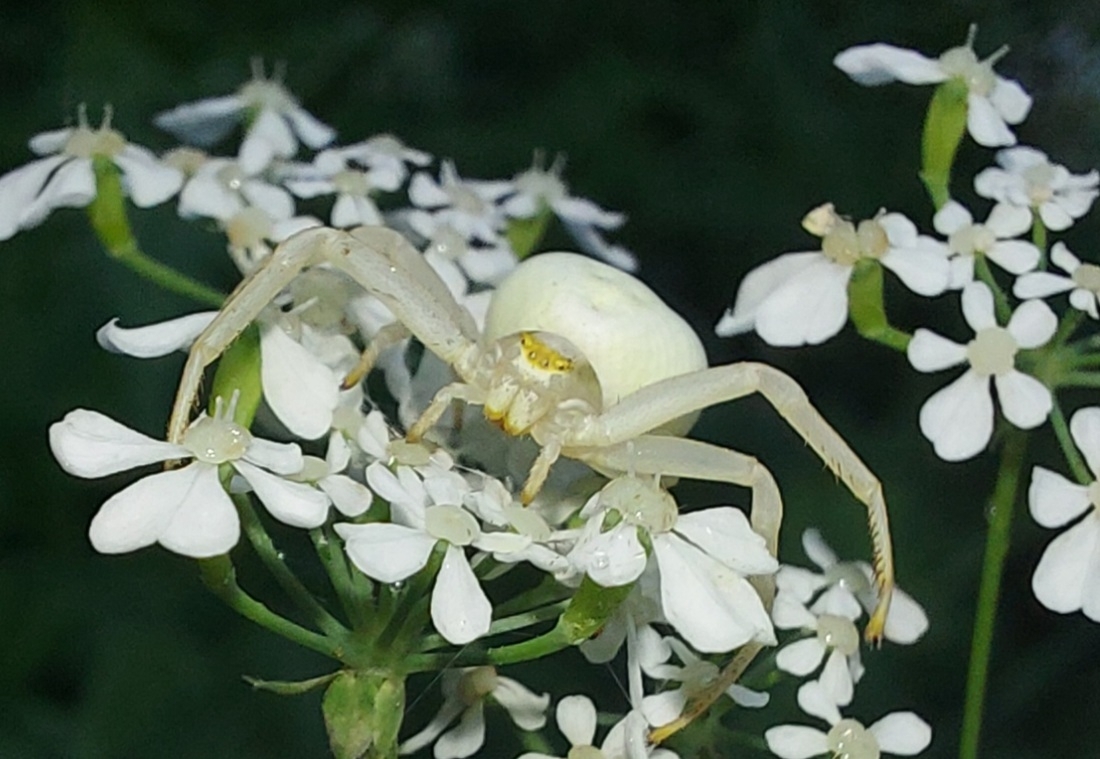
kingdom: Animalia
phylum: Arthropoda
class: Arachnida
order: Araneae
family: Thomisidae
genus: Misumena
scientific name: Misumena vatia
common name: Goldenrod crab spider
